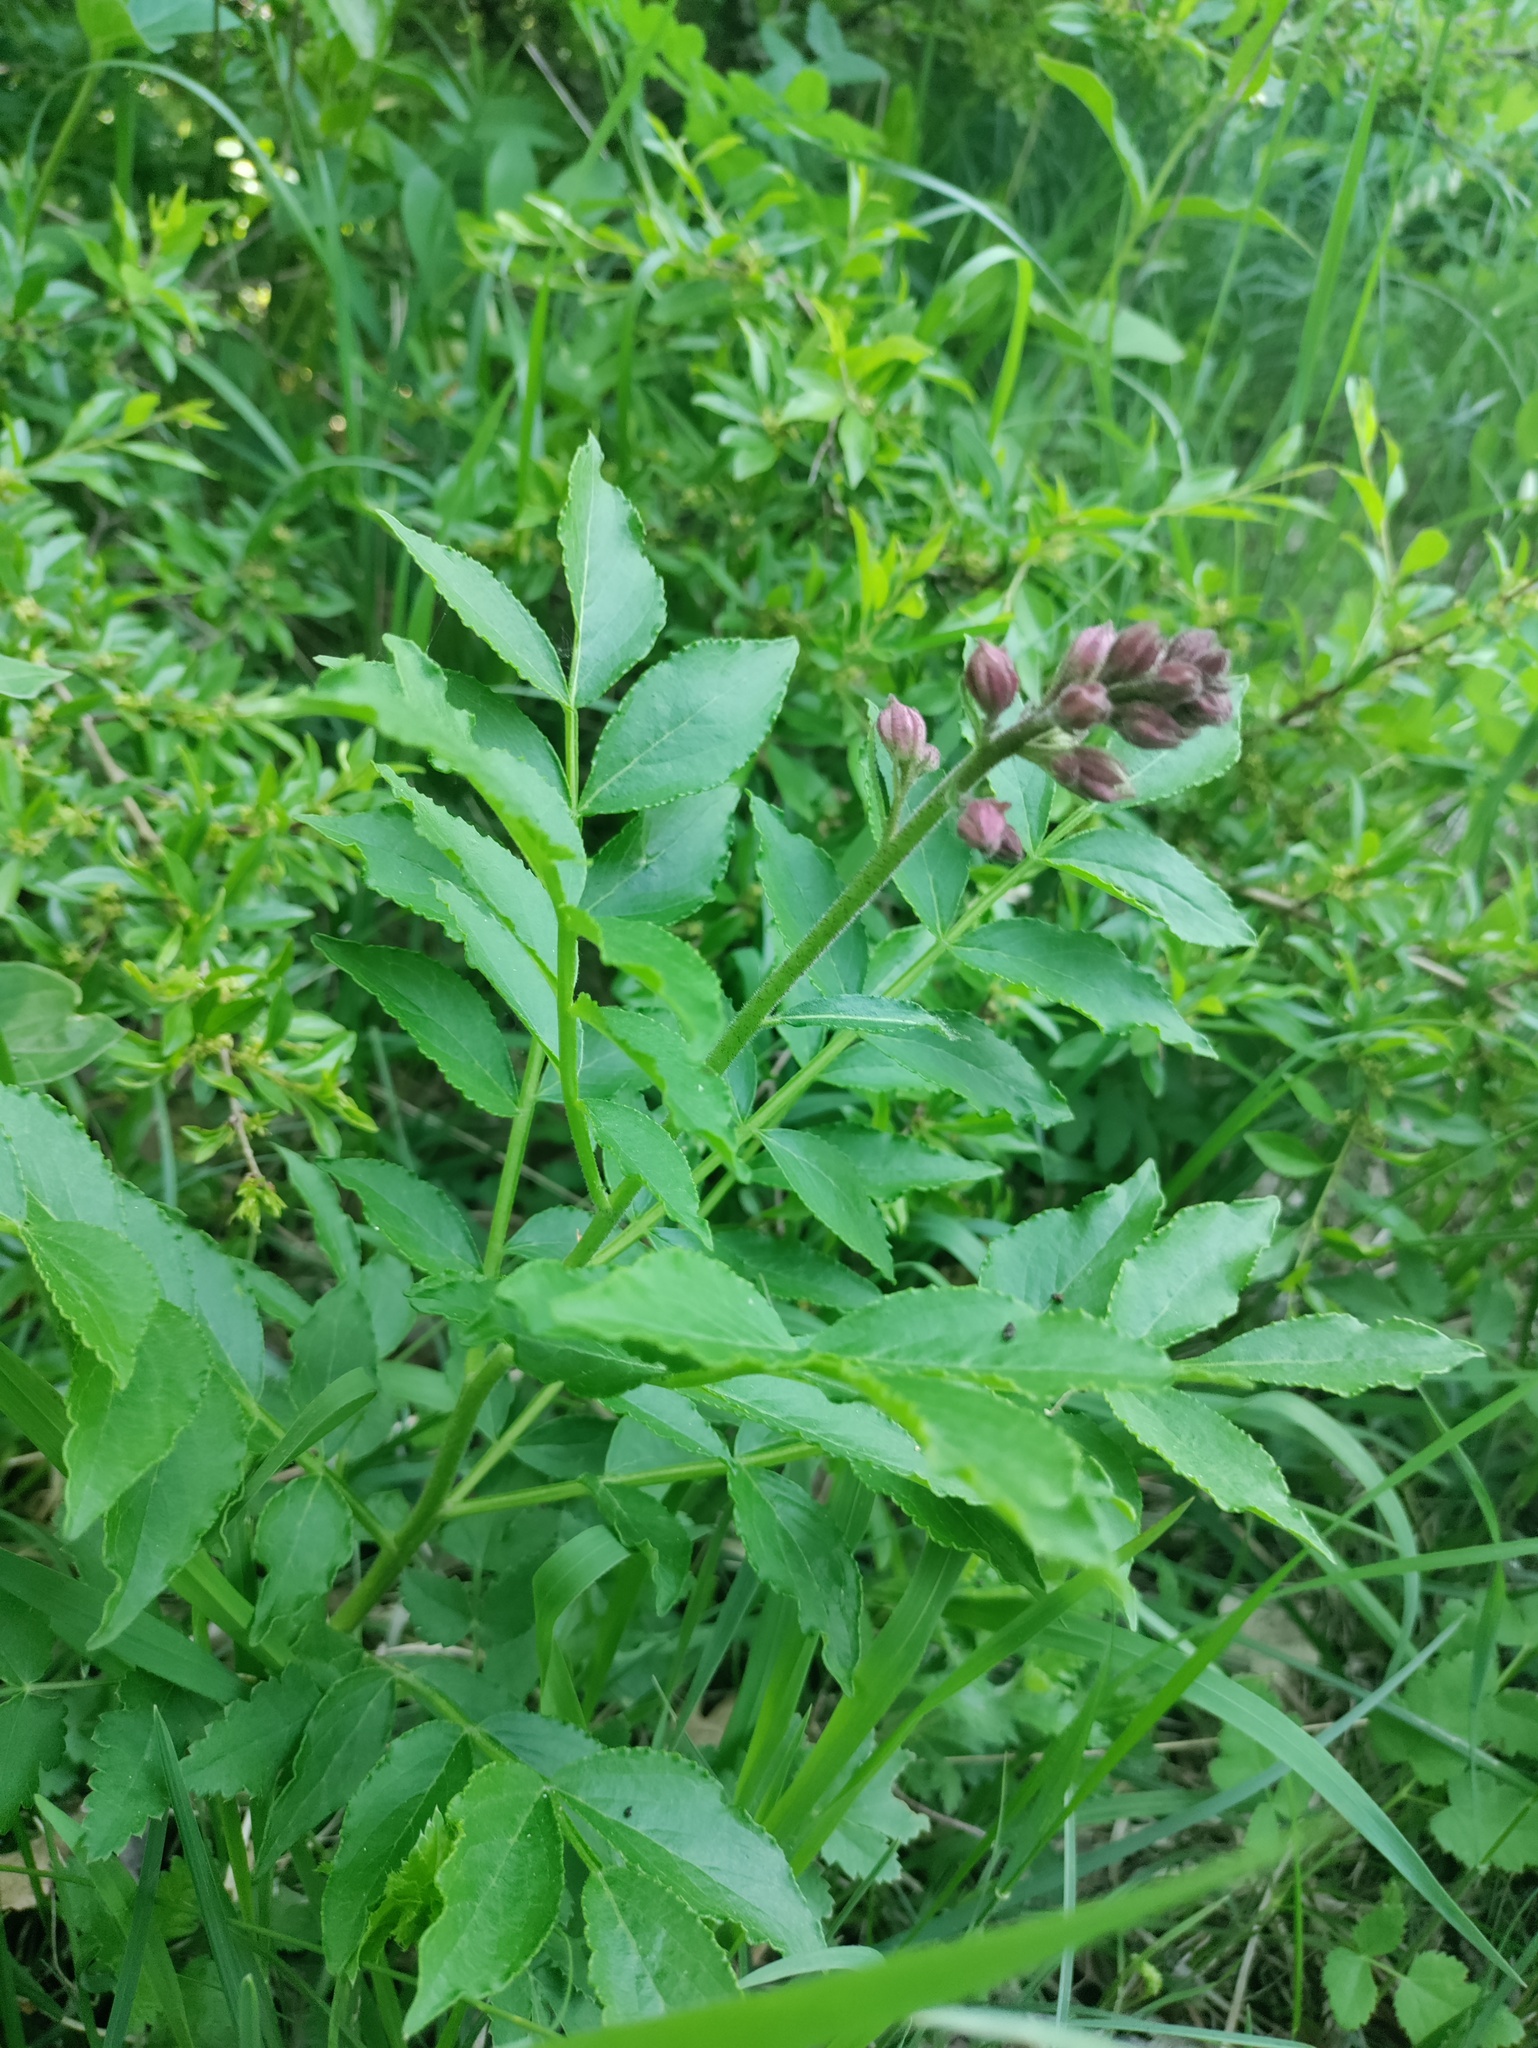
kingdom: Plantae
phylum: Tracheophyta
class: Magnoliopsida
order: Sapindales
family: Rutaceae
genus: Dictamnus
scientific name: Dictamnus albus
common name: Gasplant
